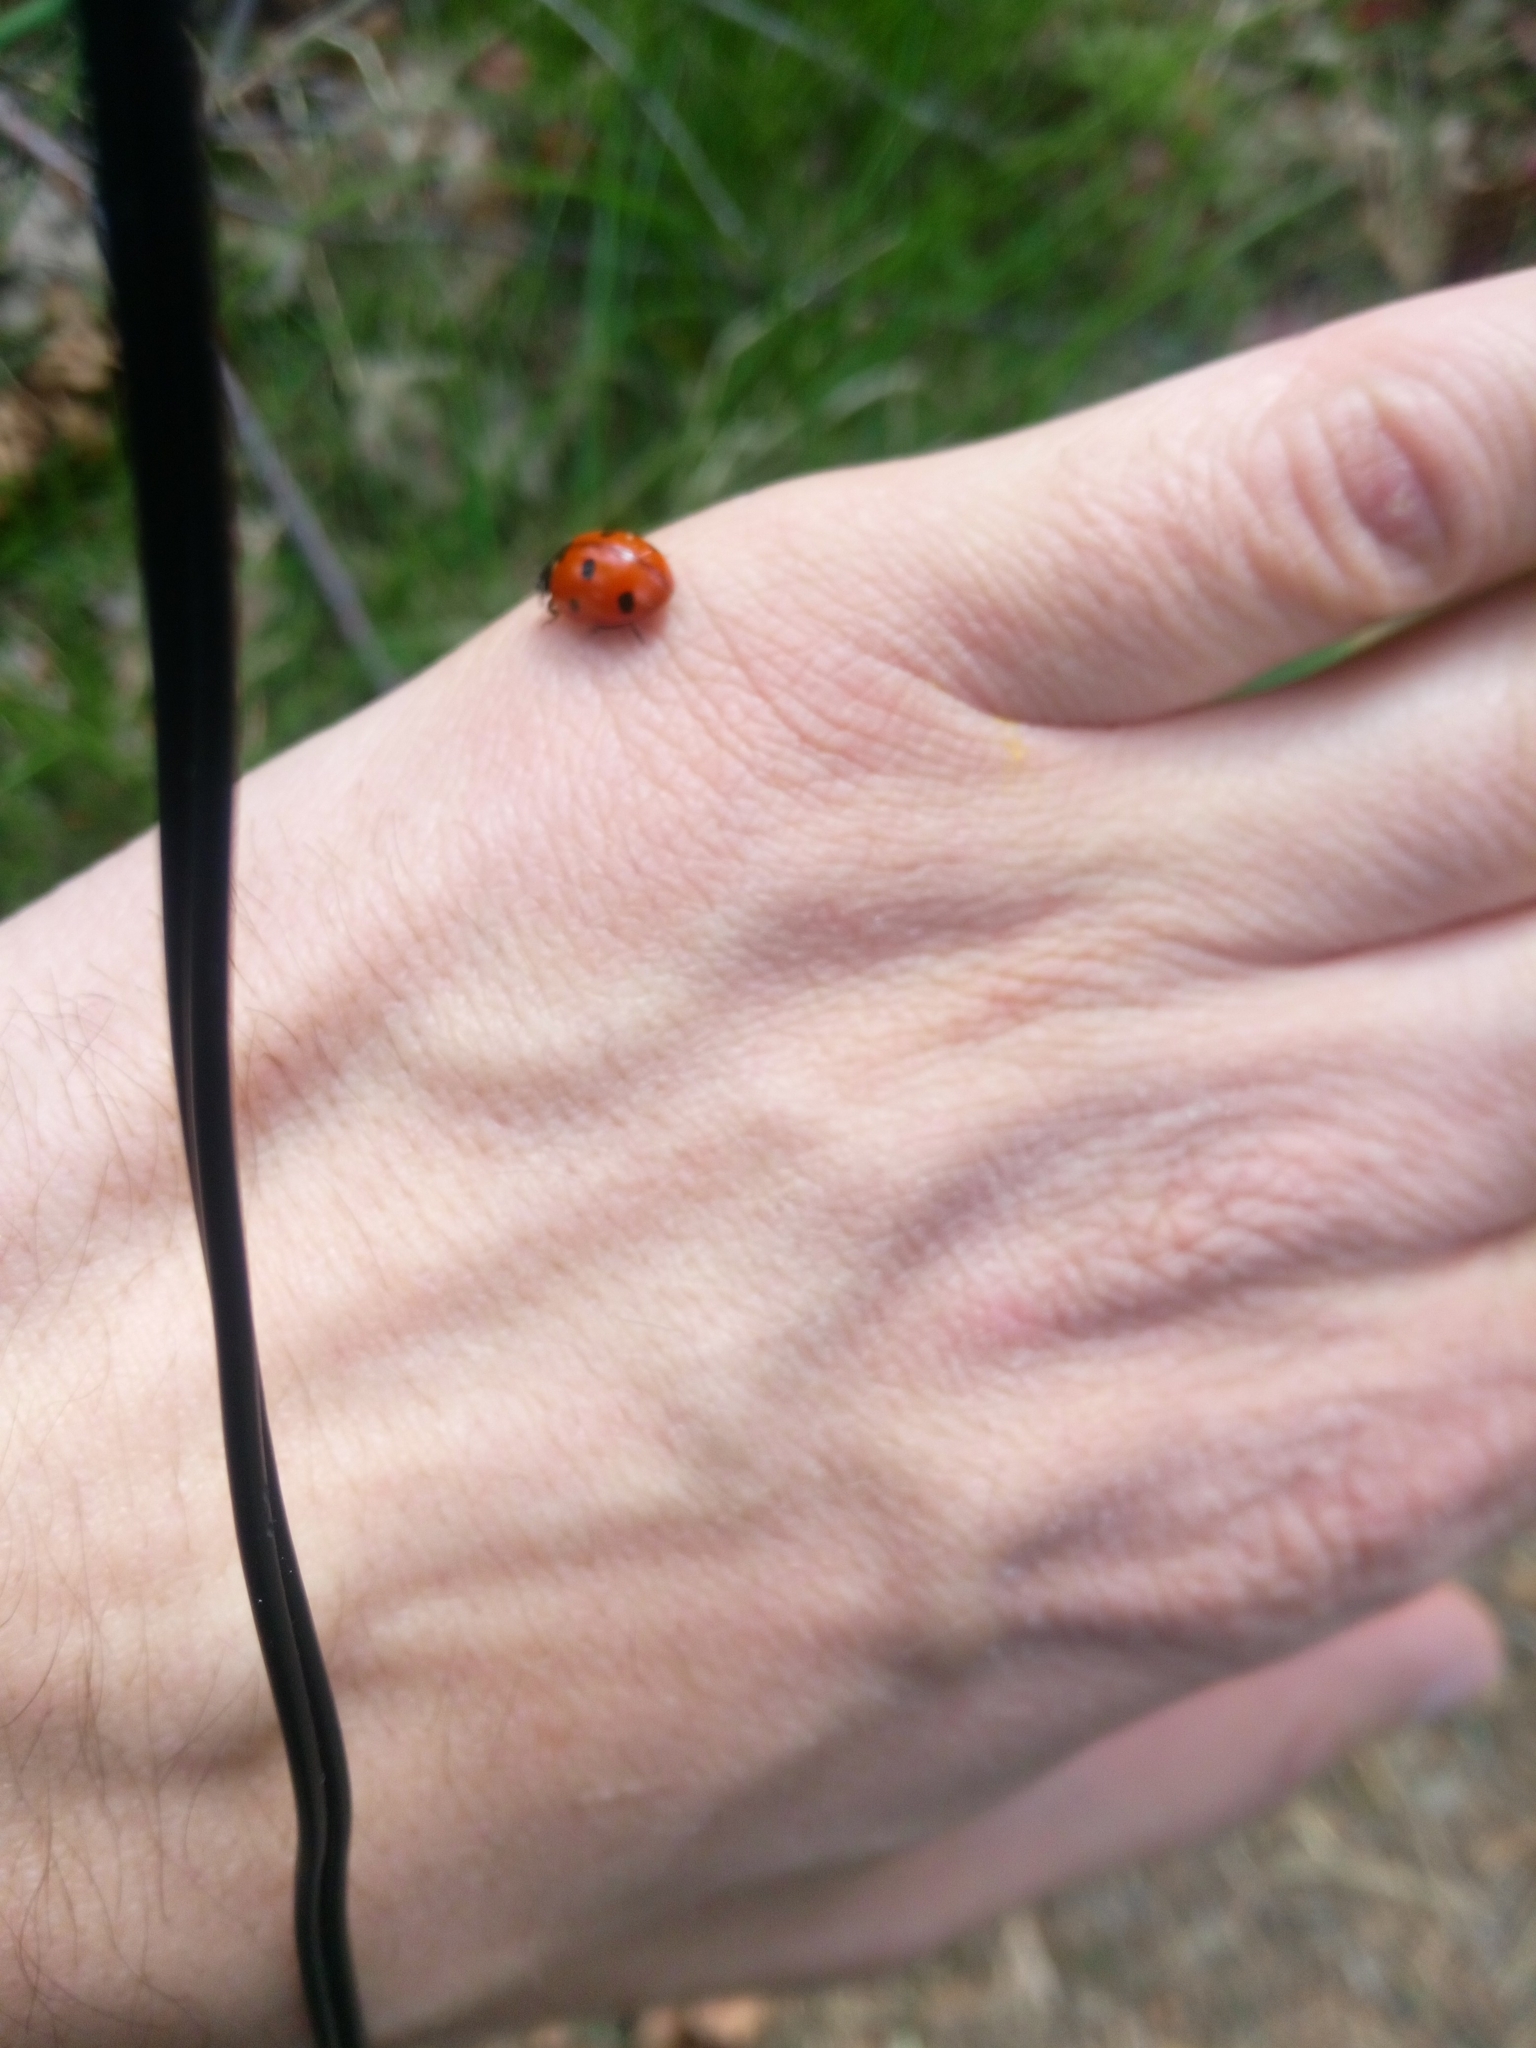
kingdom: Animalia
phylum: Arthropoda
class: Insecta
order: Coleoptera
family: Coccinellidae
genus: Coccinella
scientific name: Coccinella septempunctata
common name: Sevenspotted lady beetle
